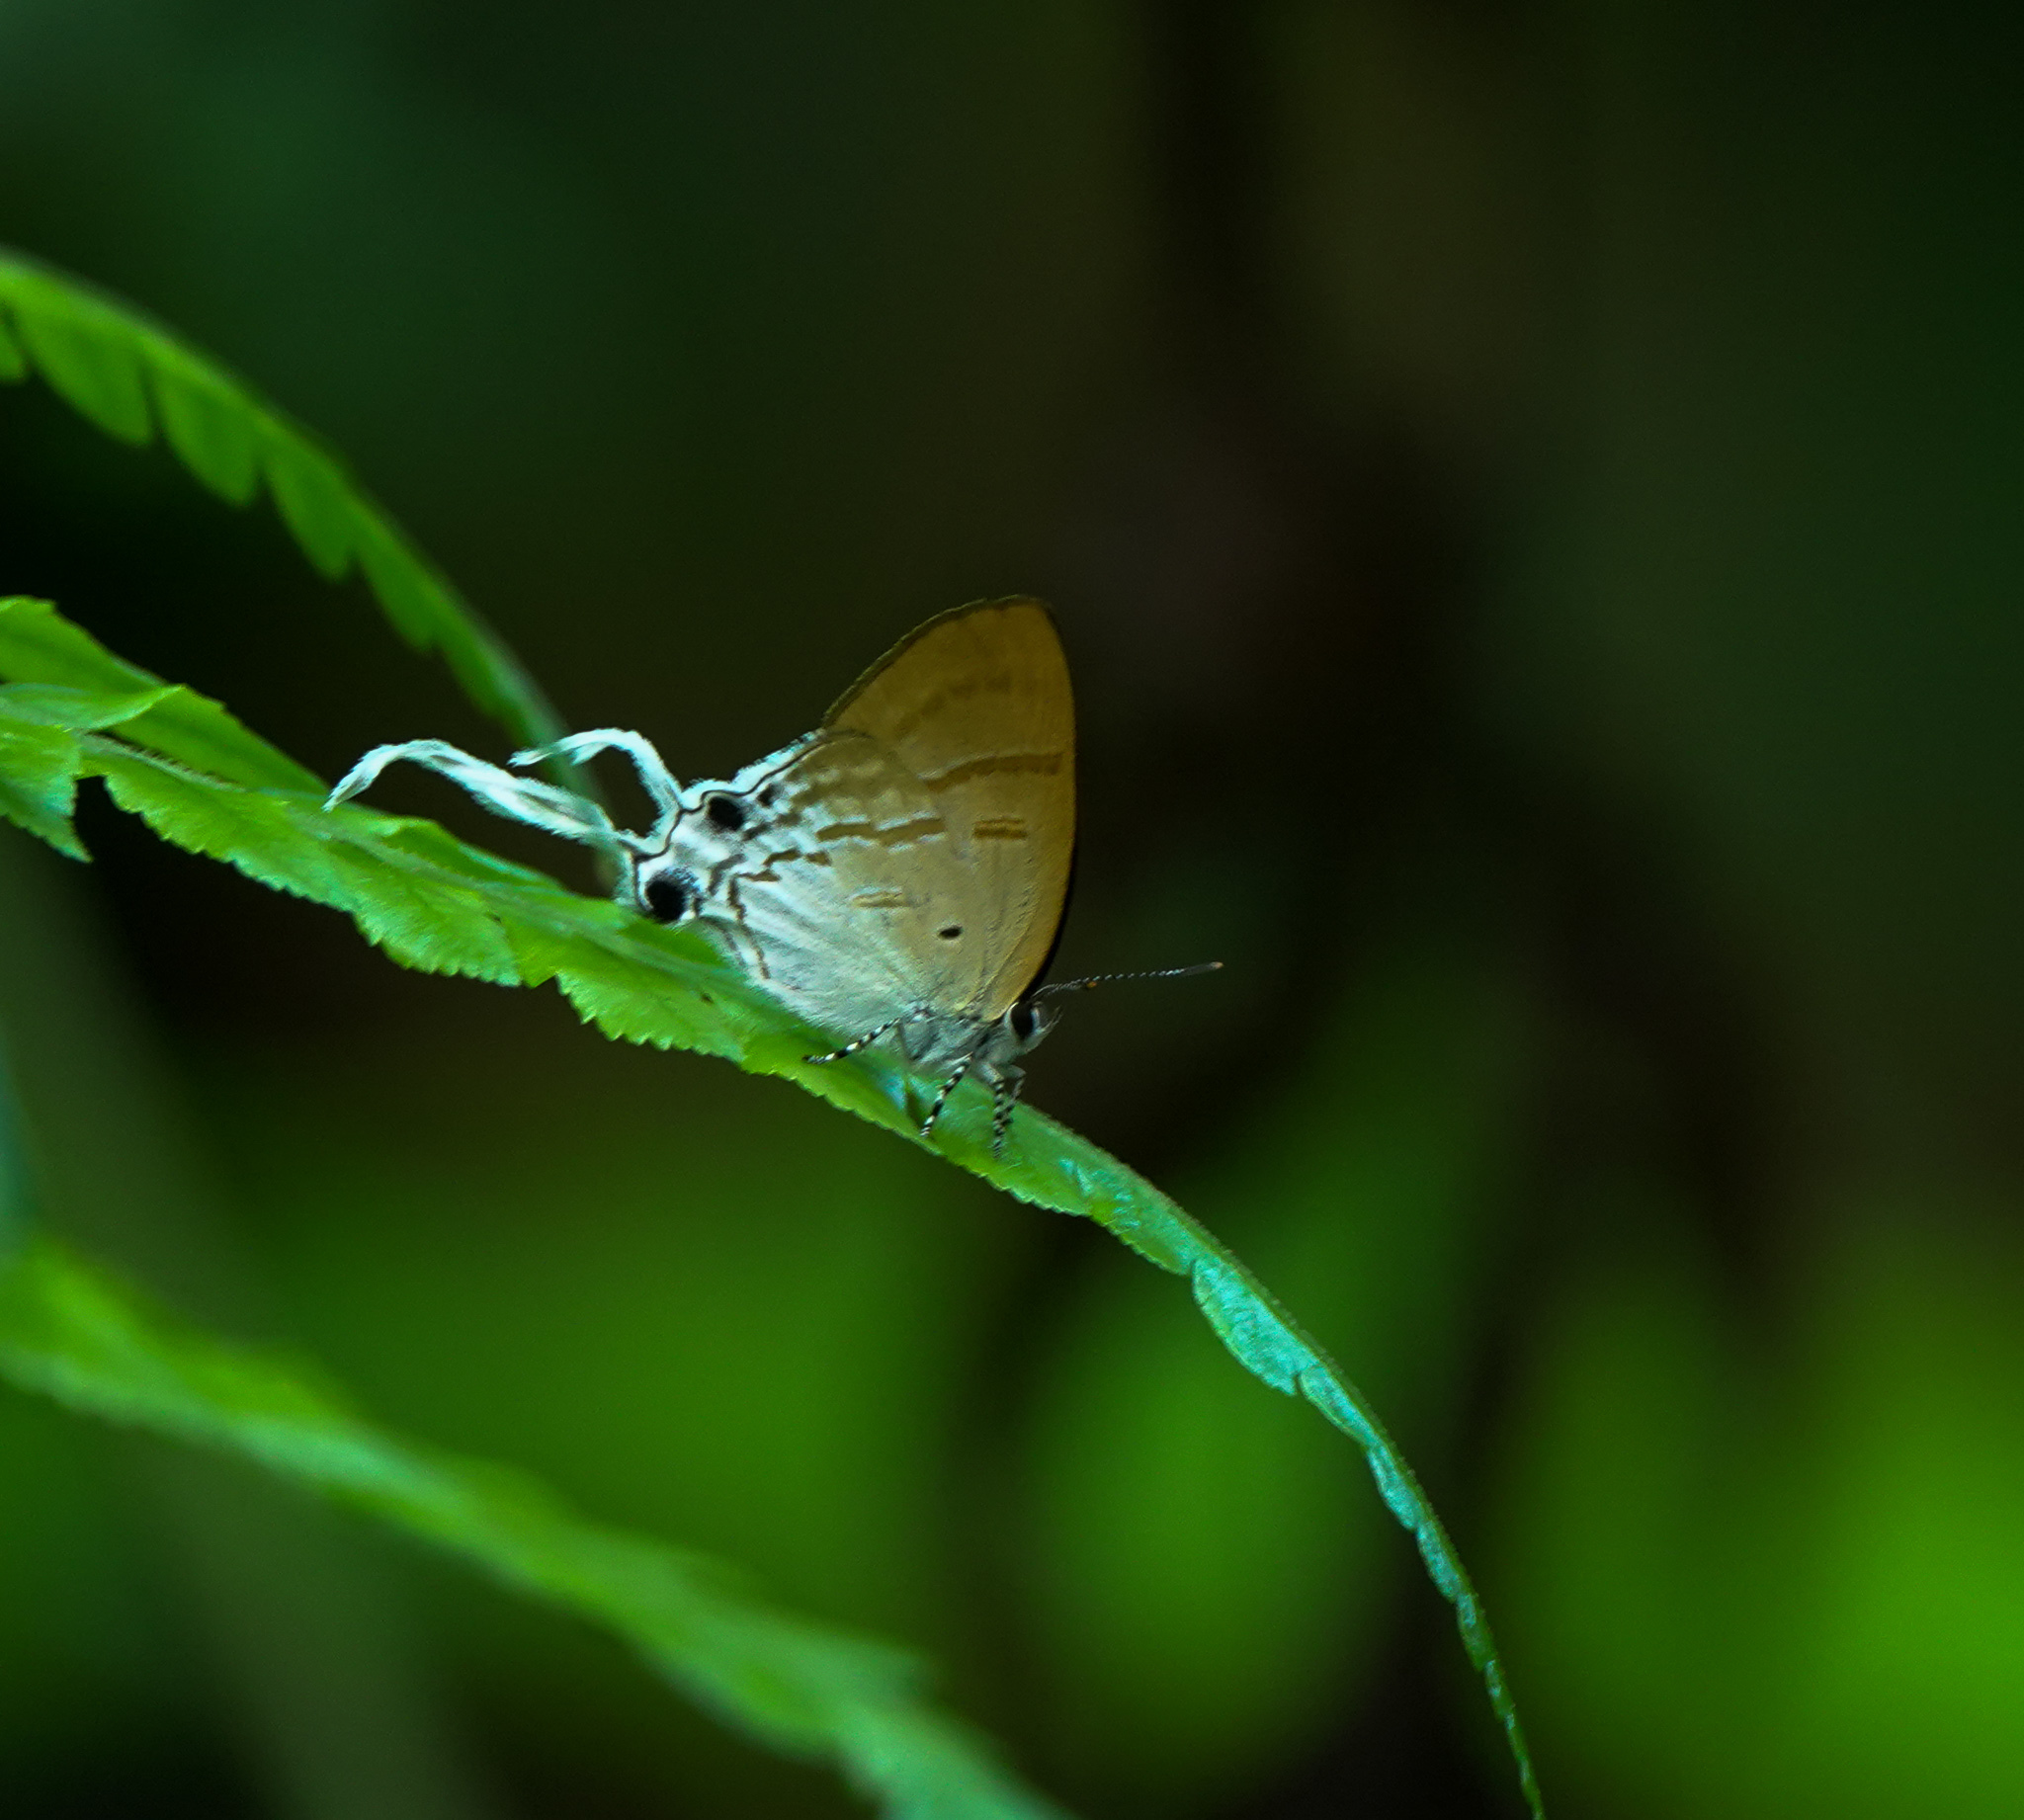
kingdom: Animalia
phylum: Arthropoda
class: Insecta
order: Lepidoptera
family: Lycaenidae
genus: Zeltus
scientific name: Zeltus amasa
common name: Fluffy tit
